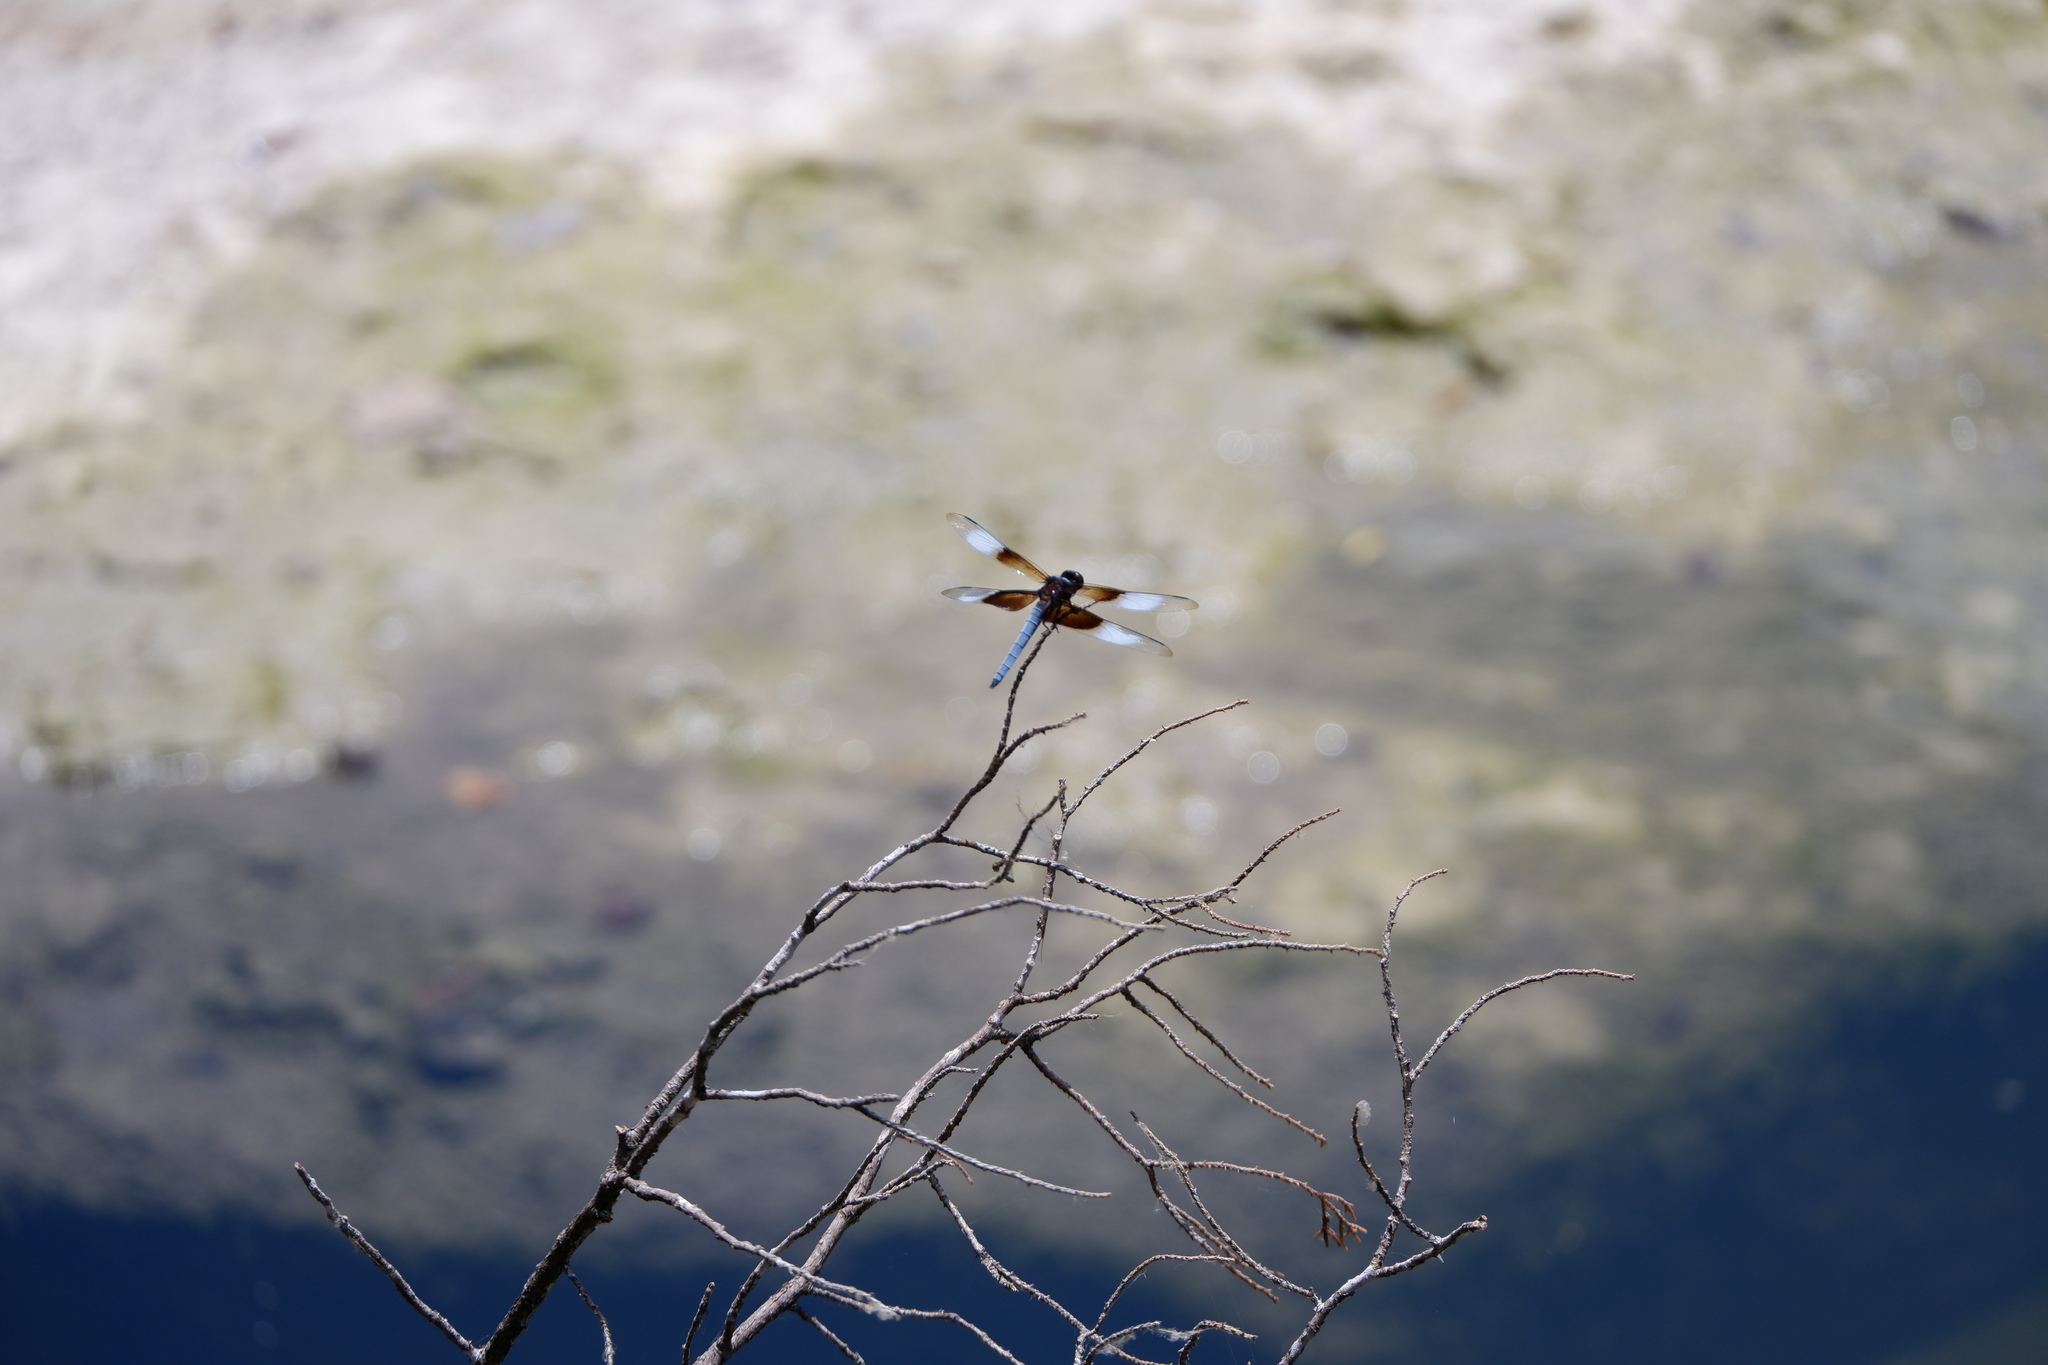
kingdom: Animalia
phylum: Arthropoda
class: Insecta
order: Odonata
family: Libellulidae
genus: Libellula
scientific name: Libellula luctuosa
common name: Widow skimmer
